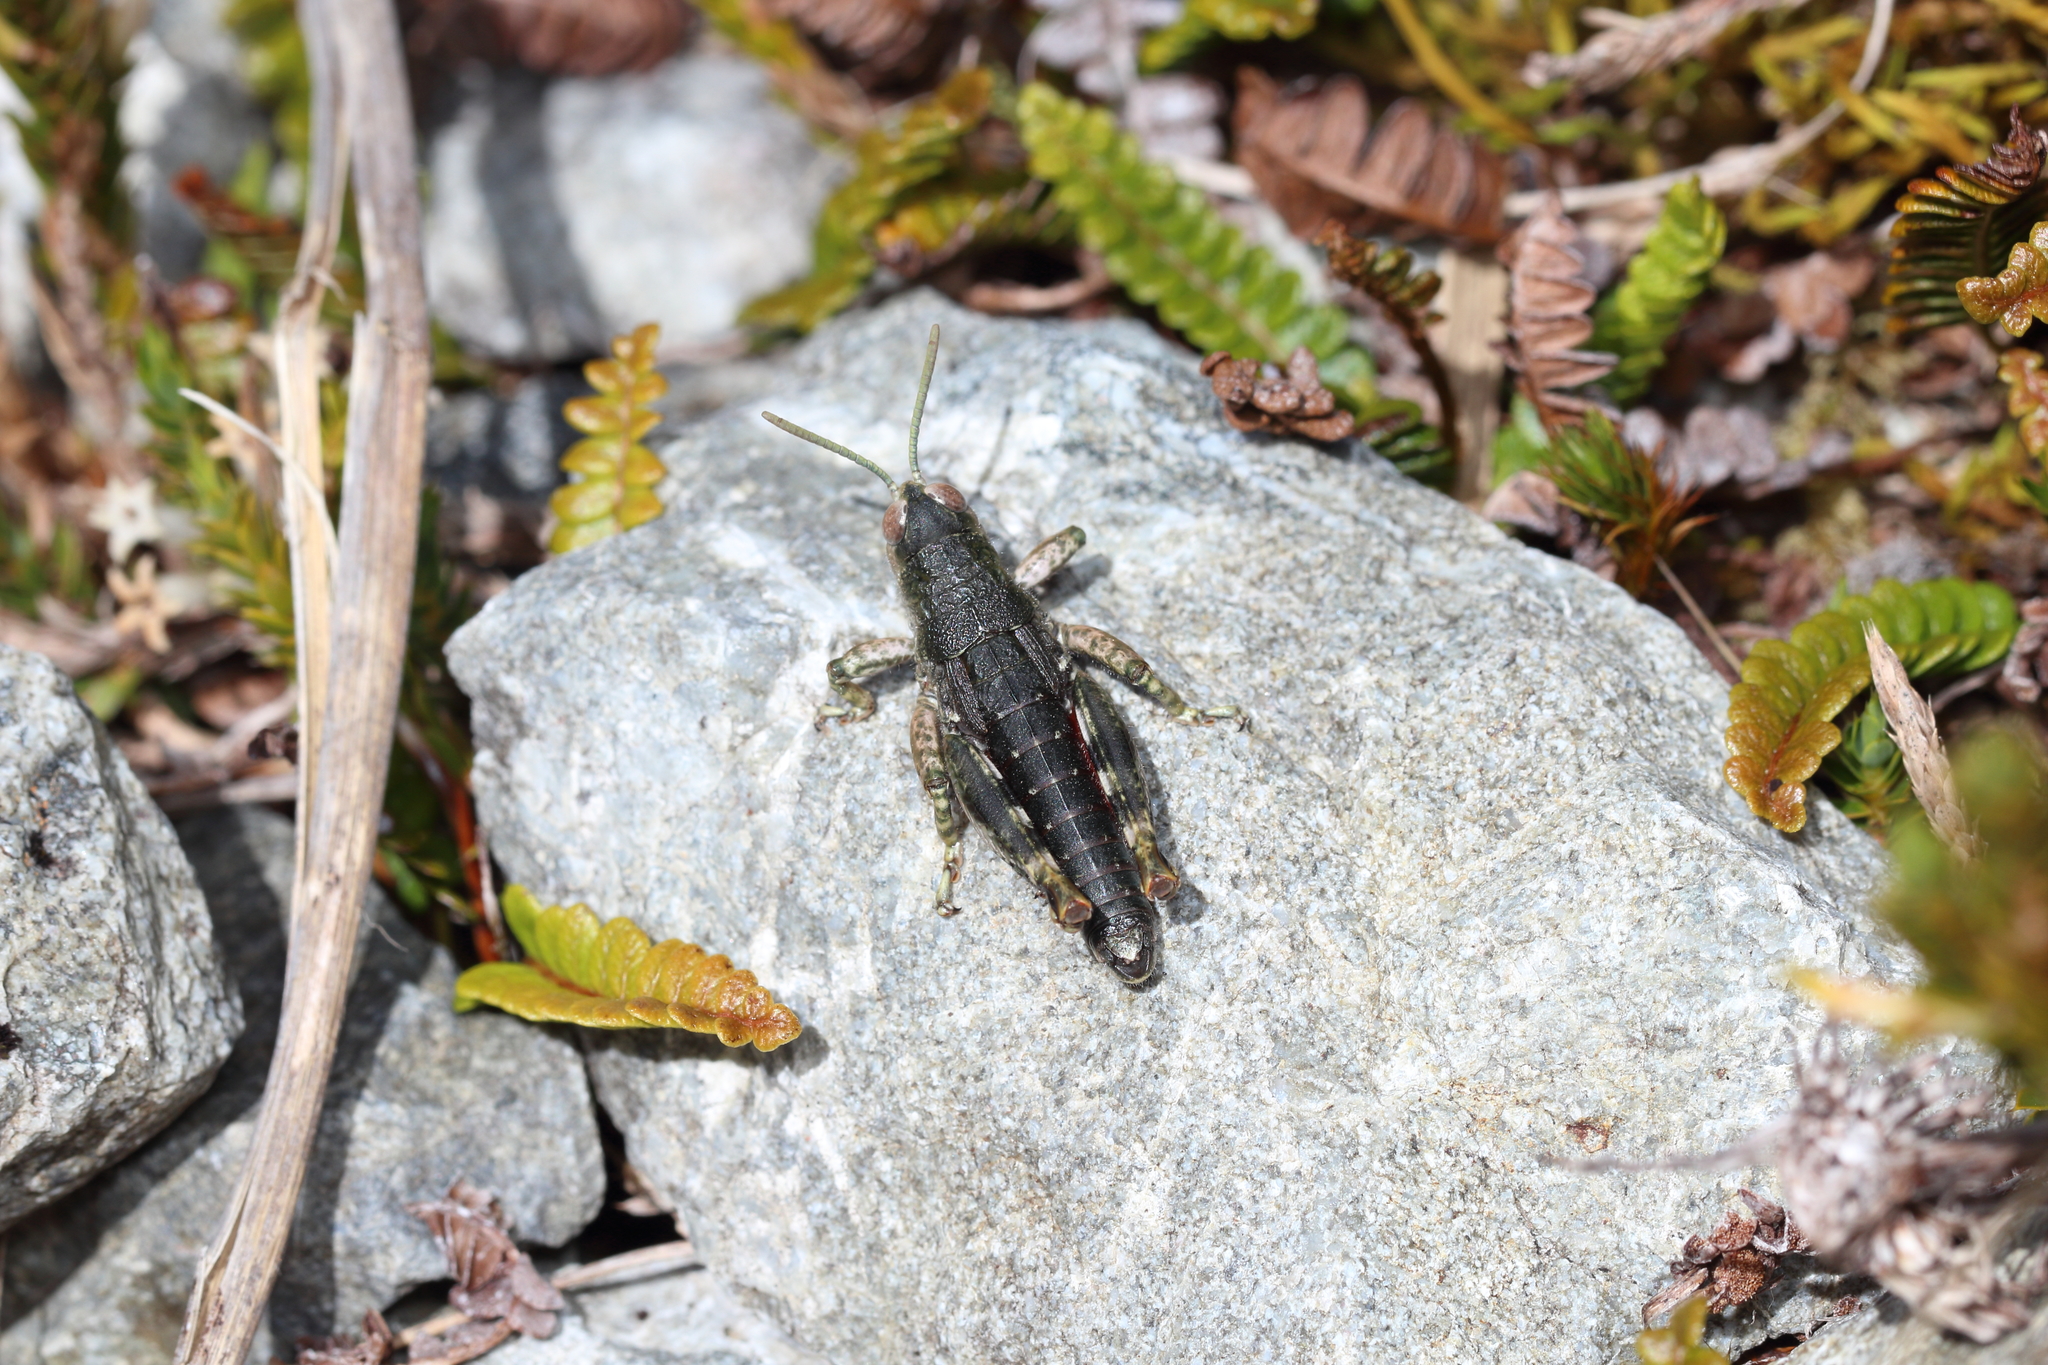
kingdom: Animalia
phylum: Arthropoda
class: Insecta
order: Orthoptera
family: Acrididae
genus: Sigaus
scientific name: Sigaus
